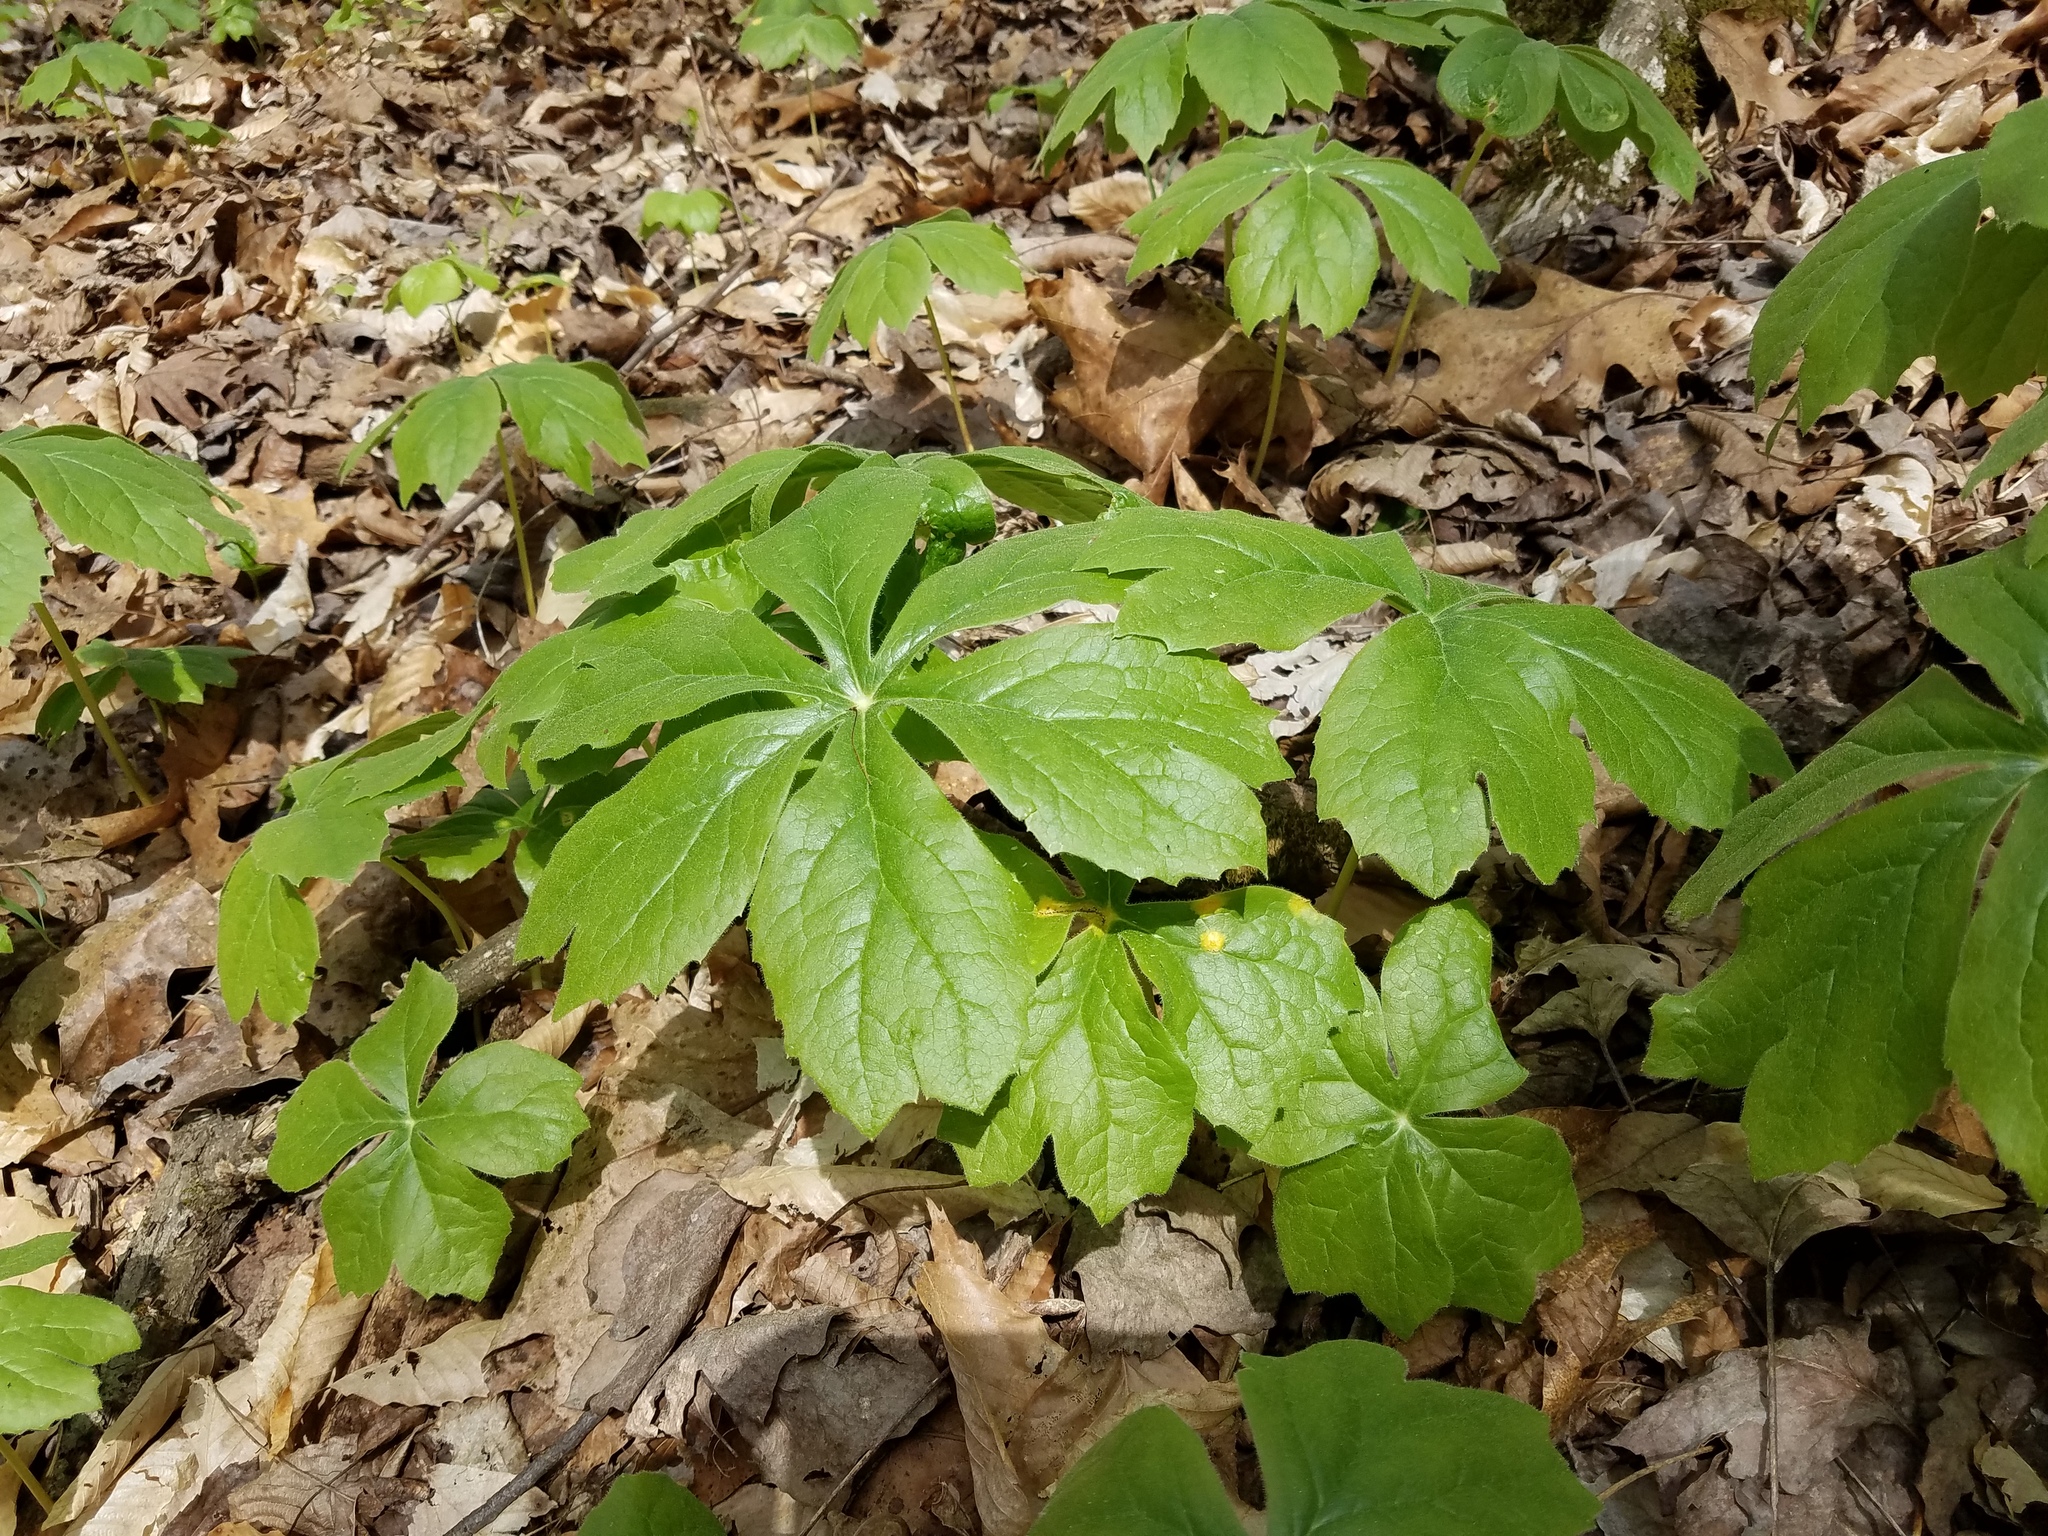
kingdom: Plantae
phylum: Tracheophyta
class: Magnoliopsida
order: Ranunculales
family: Berberidaceae
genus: Podophyllum
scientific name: Podophyllum peltatum
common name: Wild mandrake
